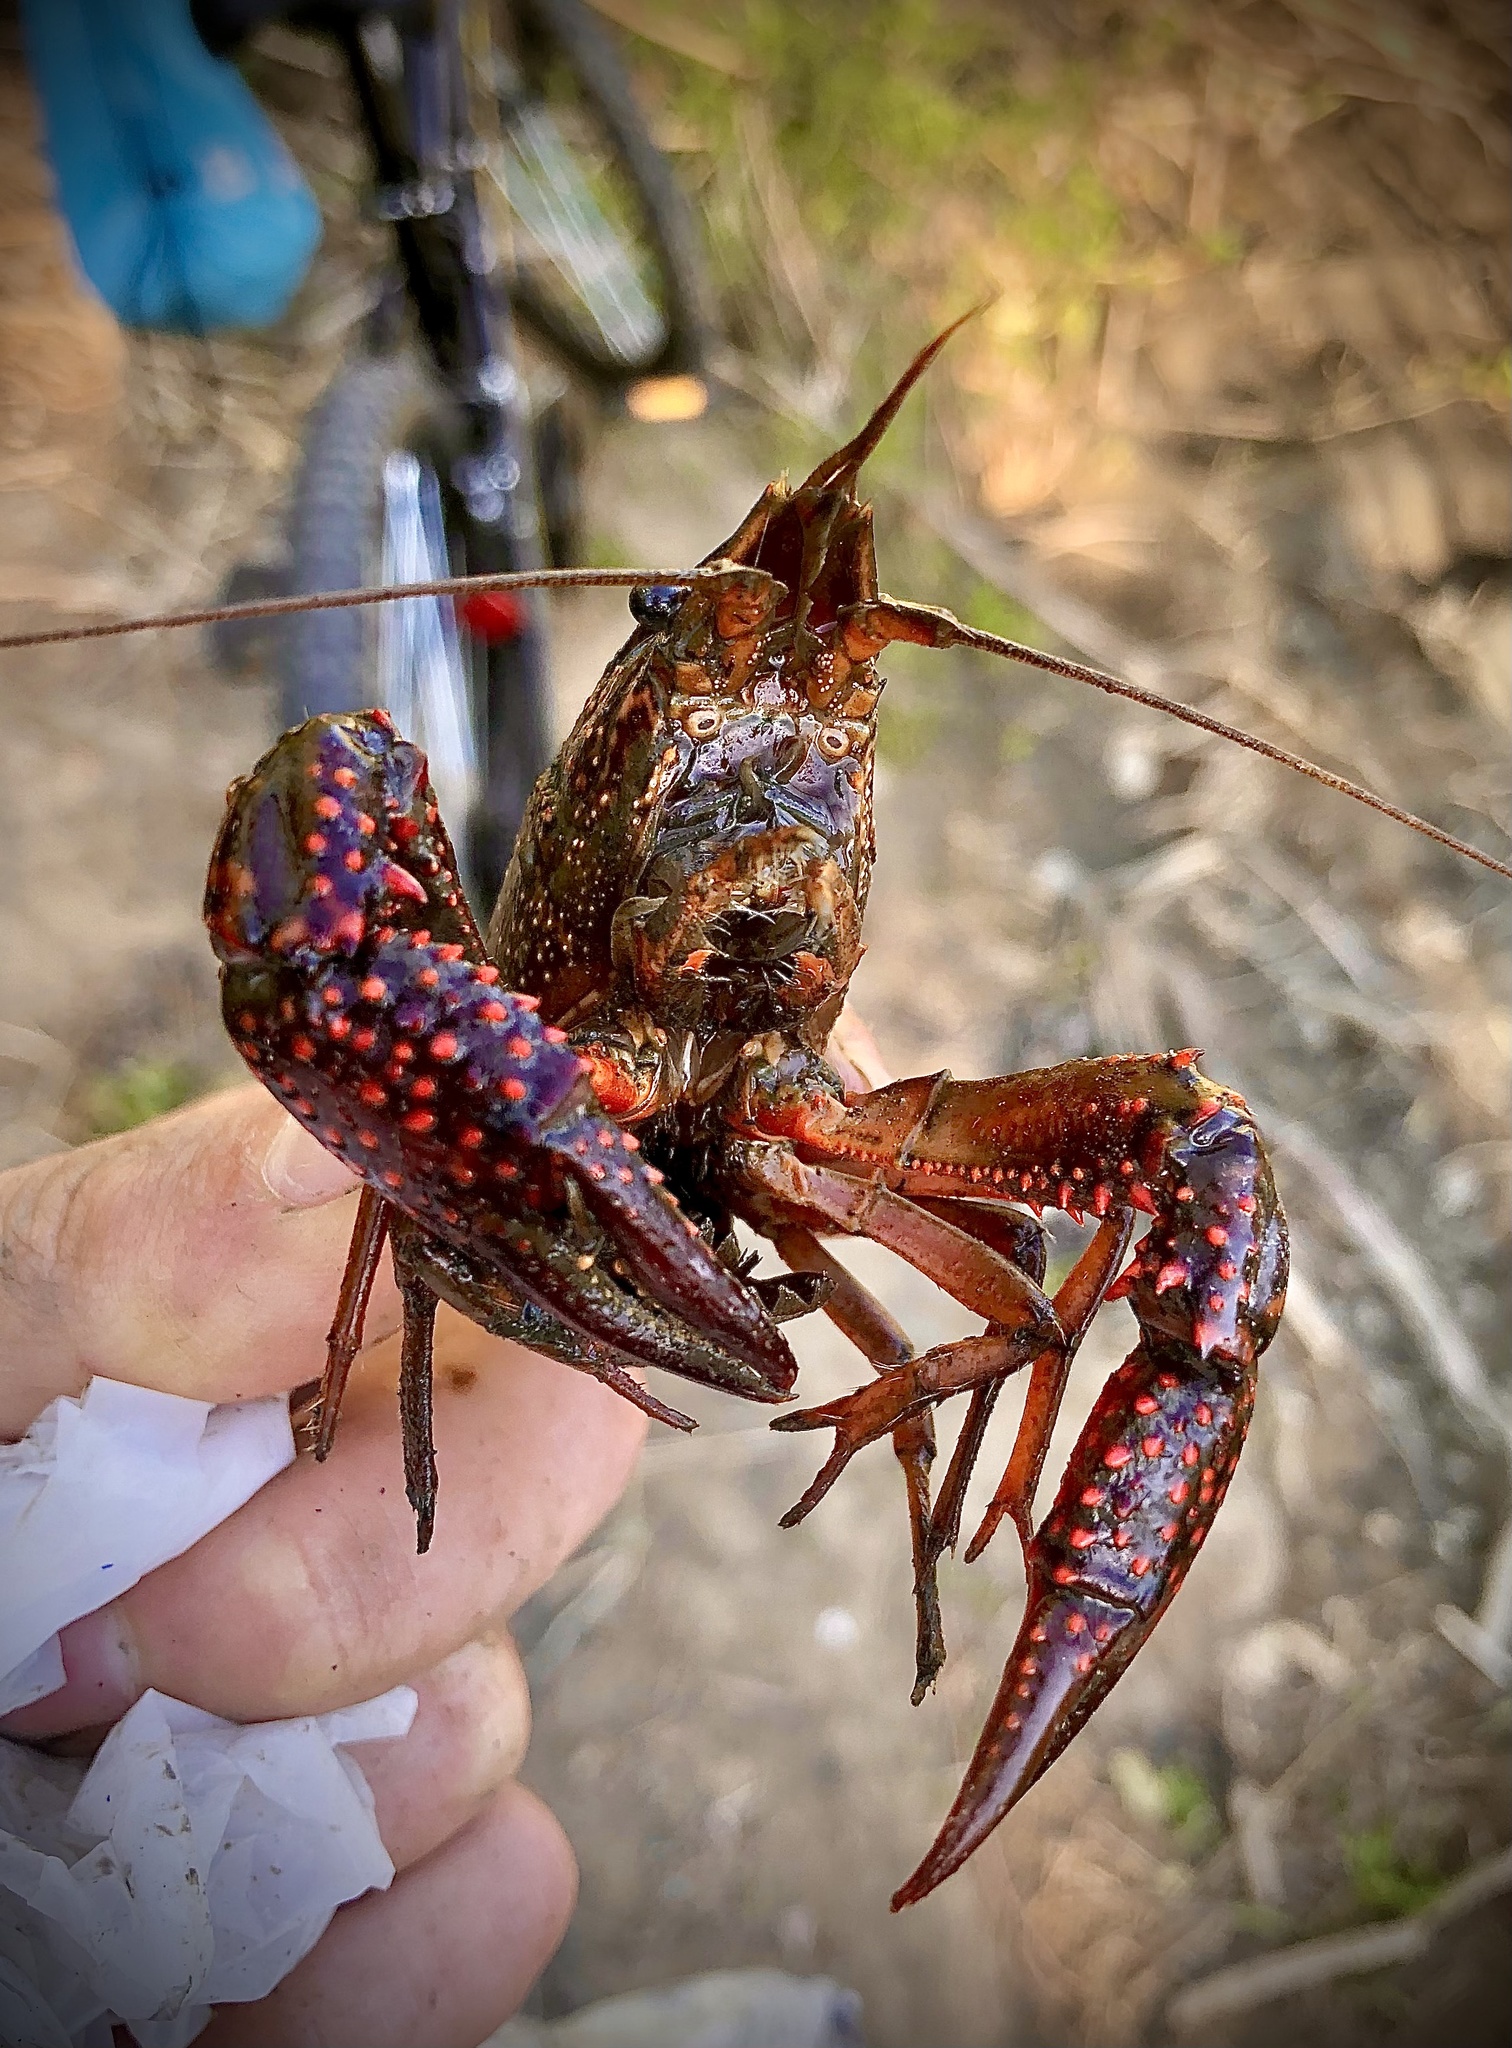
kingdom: Animalia
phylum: Arthropoda
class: Malacostraca
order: Decapoda
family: Cambaridae
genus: Procambarus
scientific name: Procambarus clarkii
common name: Red swamp crayfish
